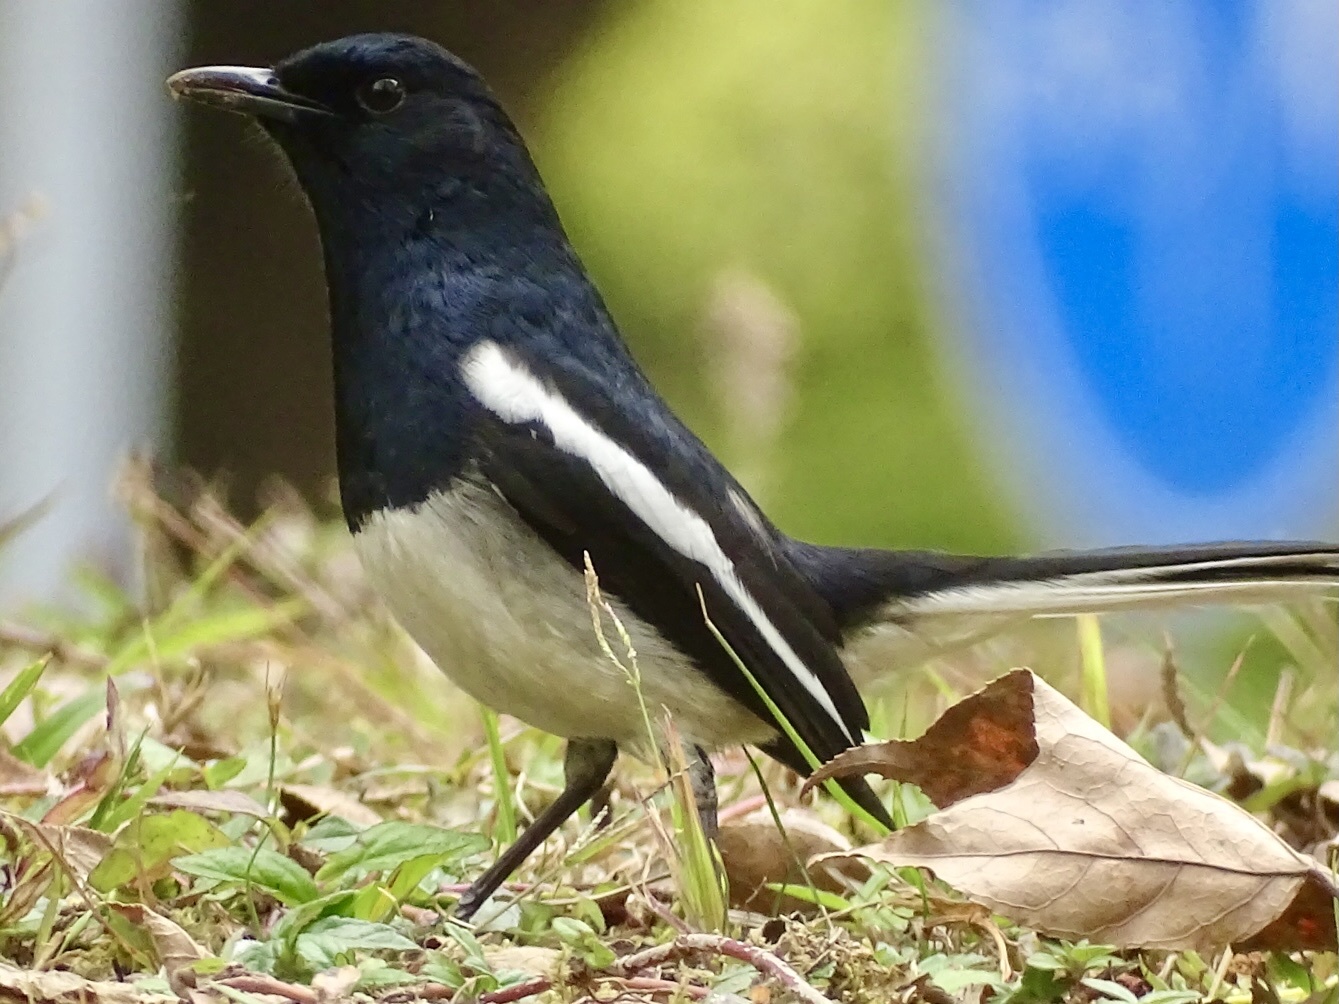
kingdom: Animalia
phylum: Chordata
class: Aves
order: Passeriformes
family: Muscicapidae
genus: Copsychus
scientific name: Copsychus saularis
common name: Oriental magpie-robin
